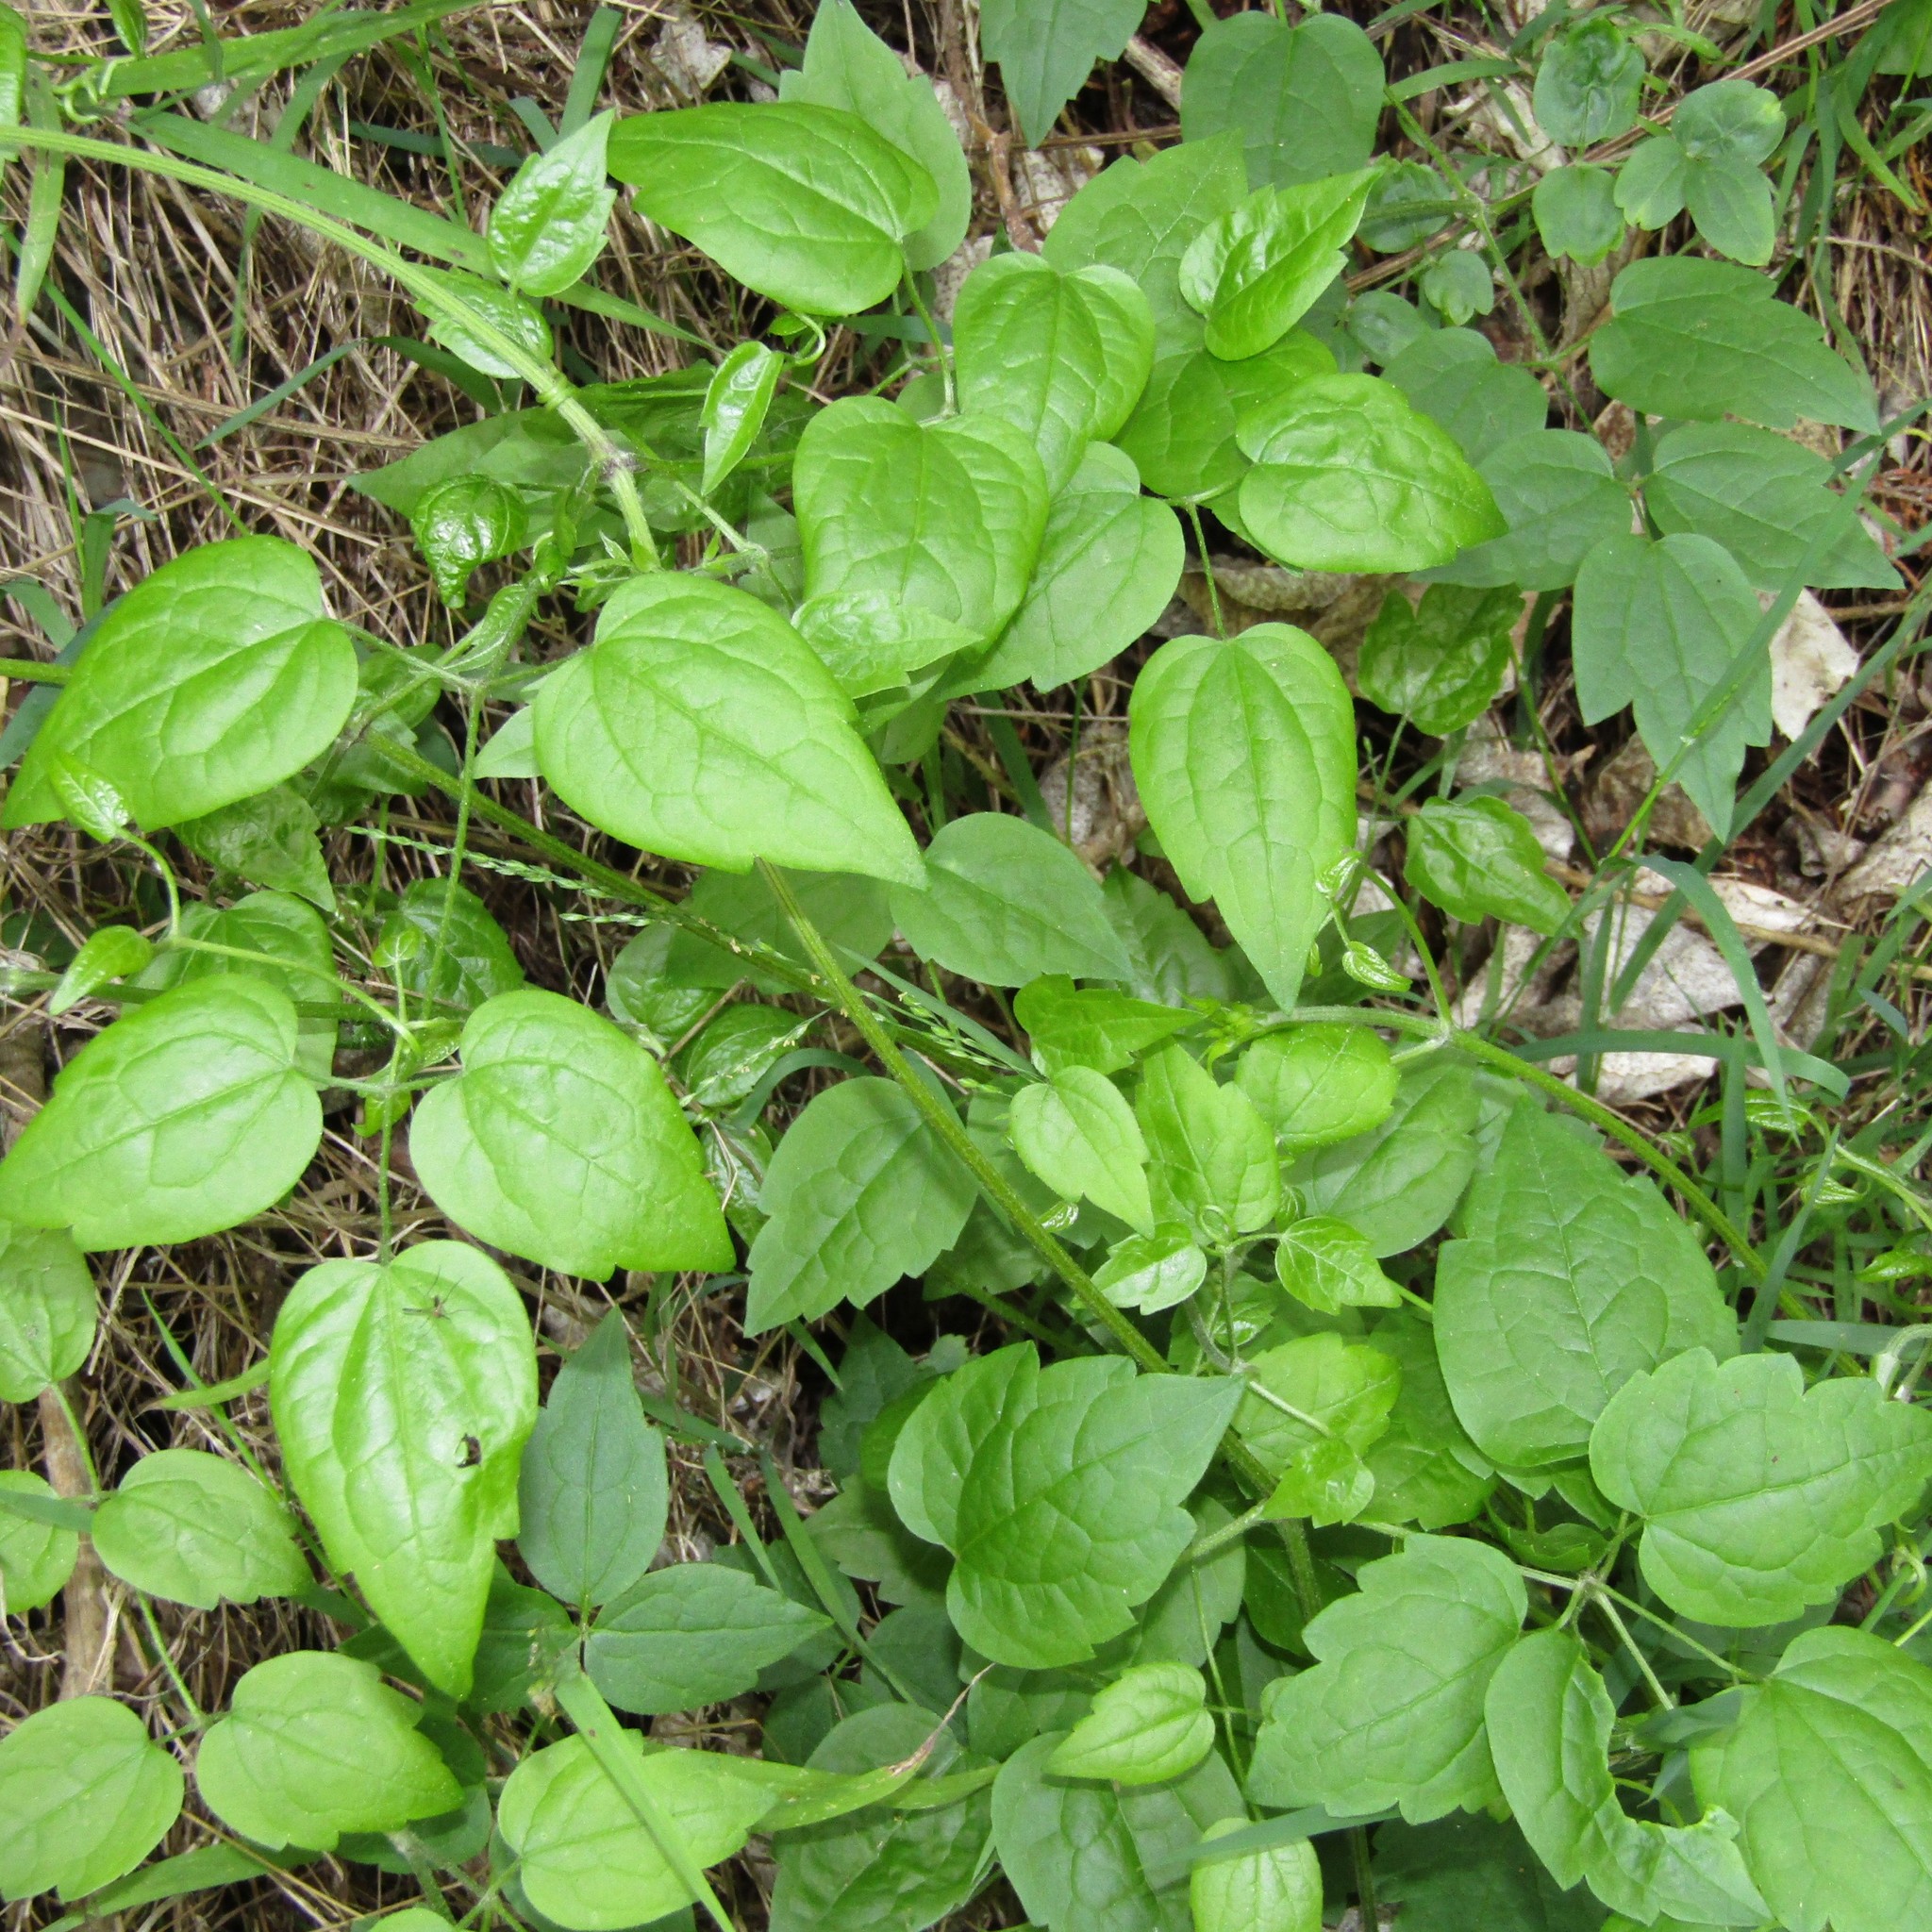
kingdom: Plantae
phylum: Tracheophyta
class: Magnoliopsida
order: Ranunculales
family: Ranunculaceae
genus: Clematis
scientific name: Clematis vitalba
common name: Evergreen clematis
